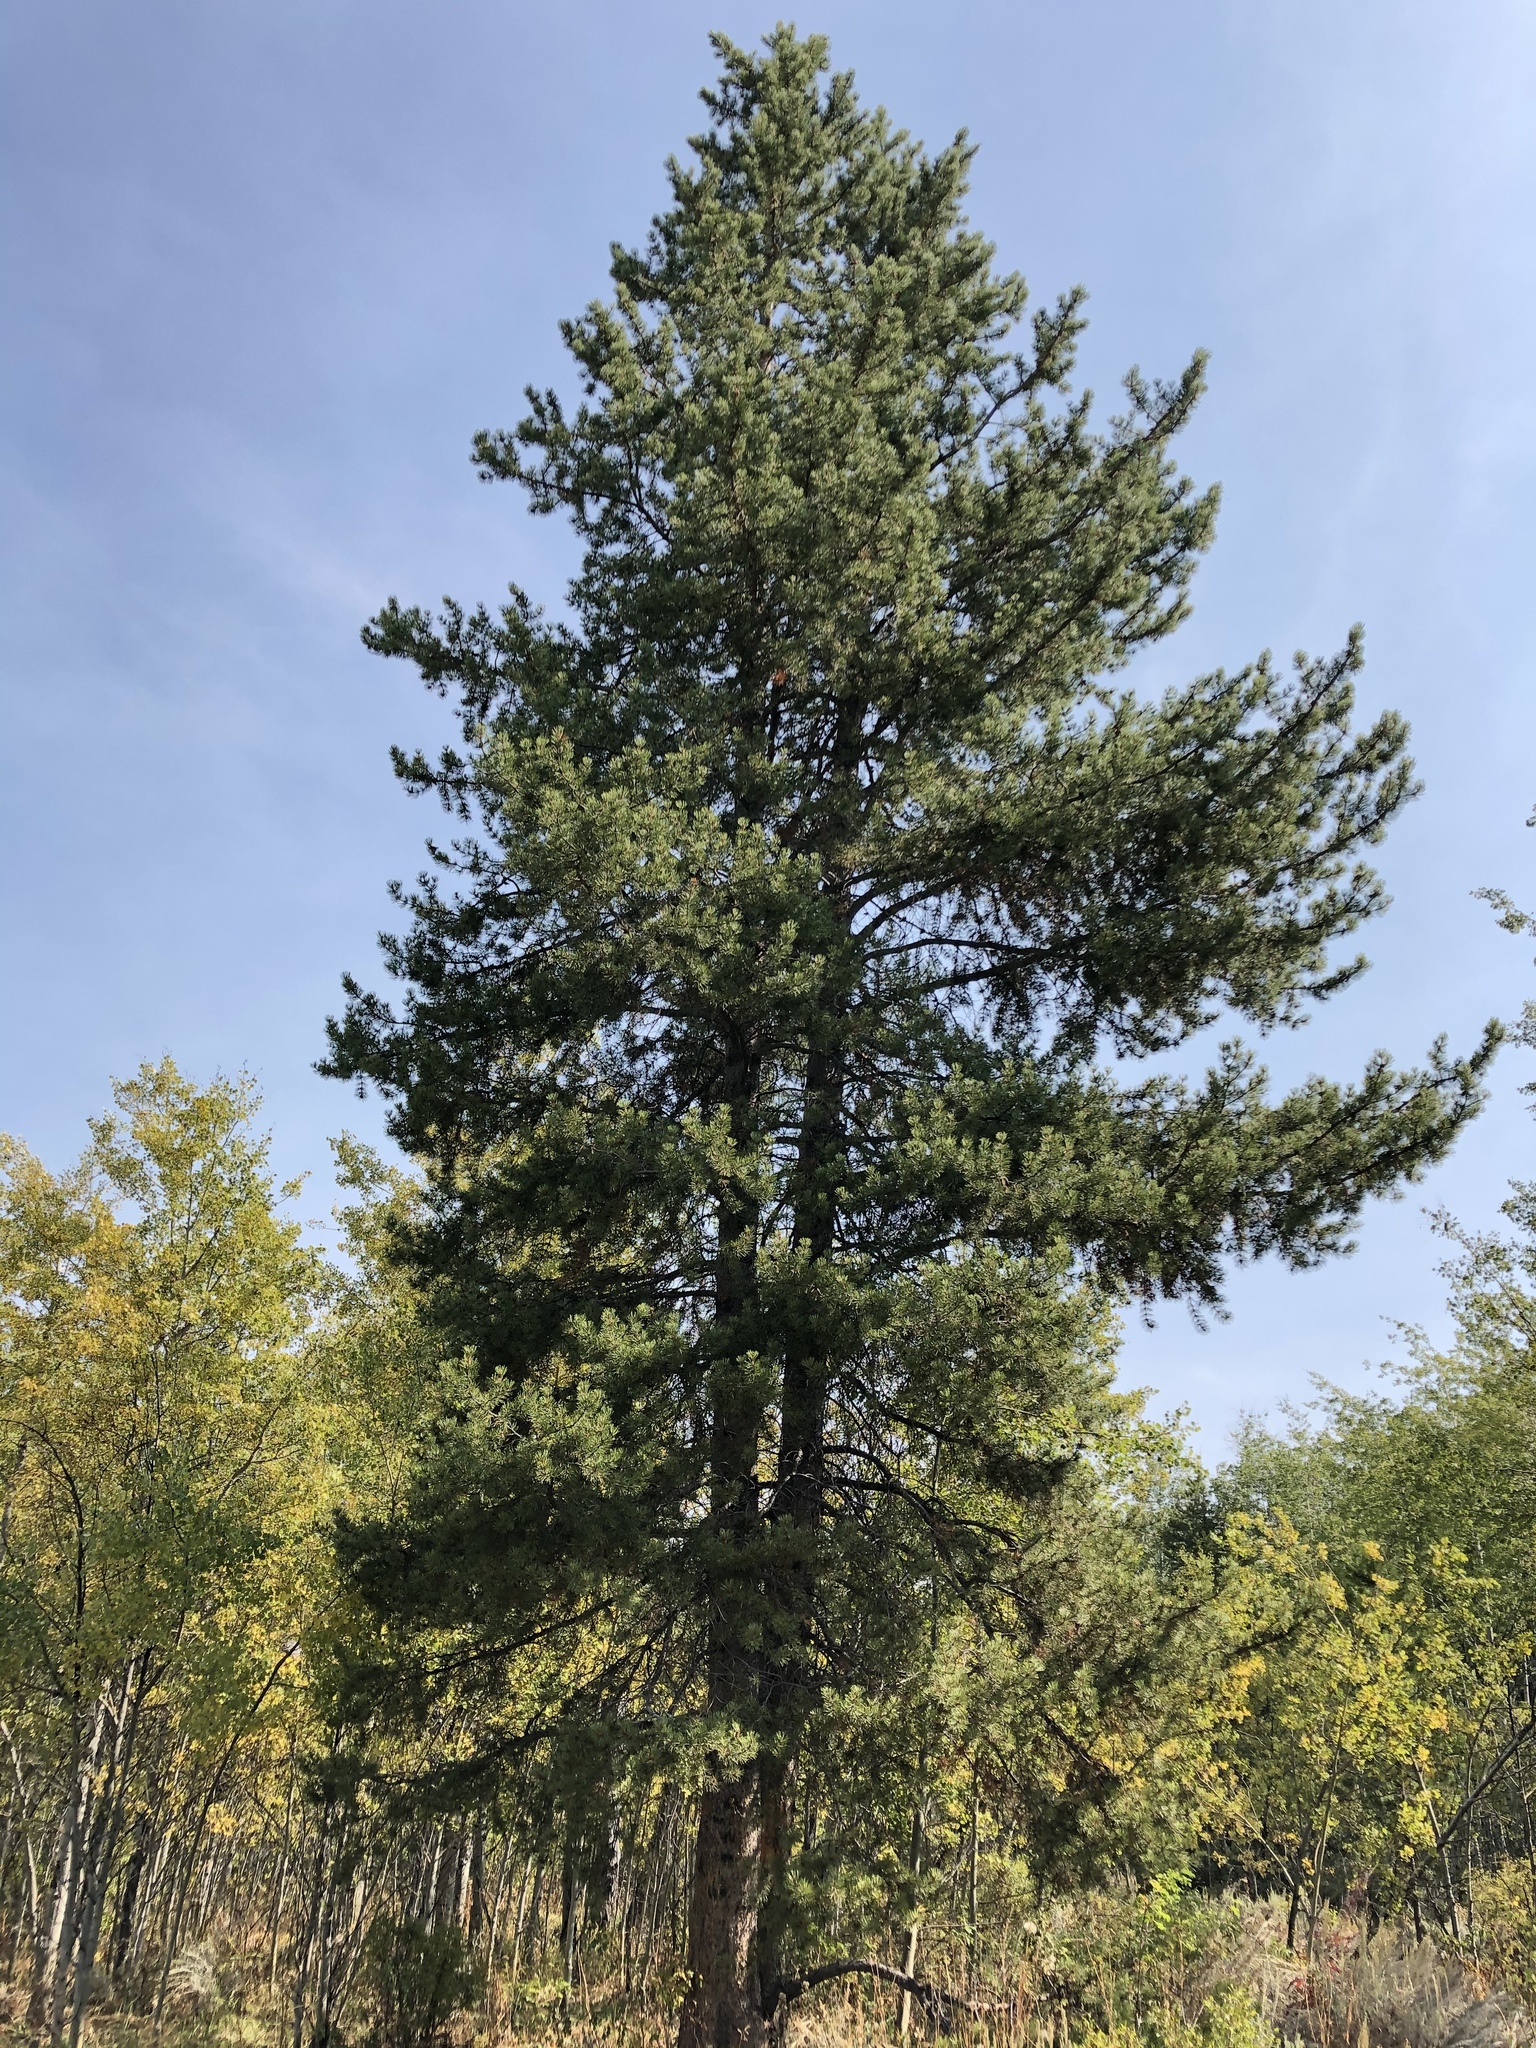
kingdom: Plantae
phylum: Tracheophyta
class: Pinopsida
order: Pinales
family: Pinaceae
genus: Pinus
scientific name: Pinus contorta
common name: Lodgepole pine
